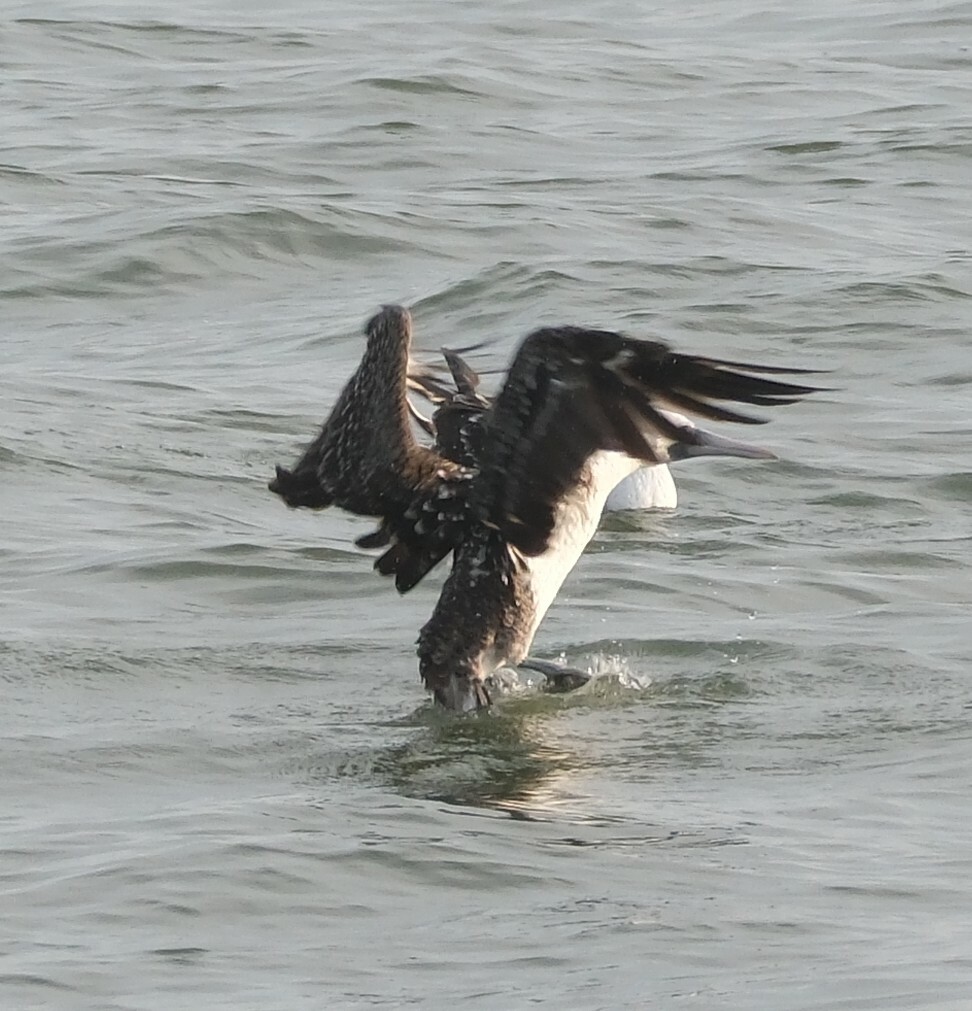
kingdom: Animalia
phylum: Chordata
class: Aves
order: Suliformes
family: Sulidae
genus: Sula
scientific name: Sula variegata
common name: Peruvian booby
